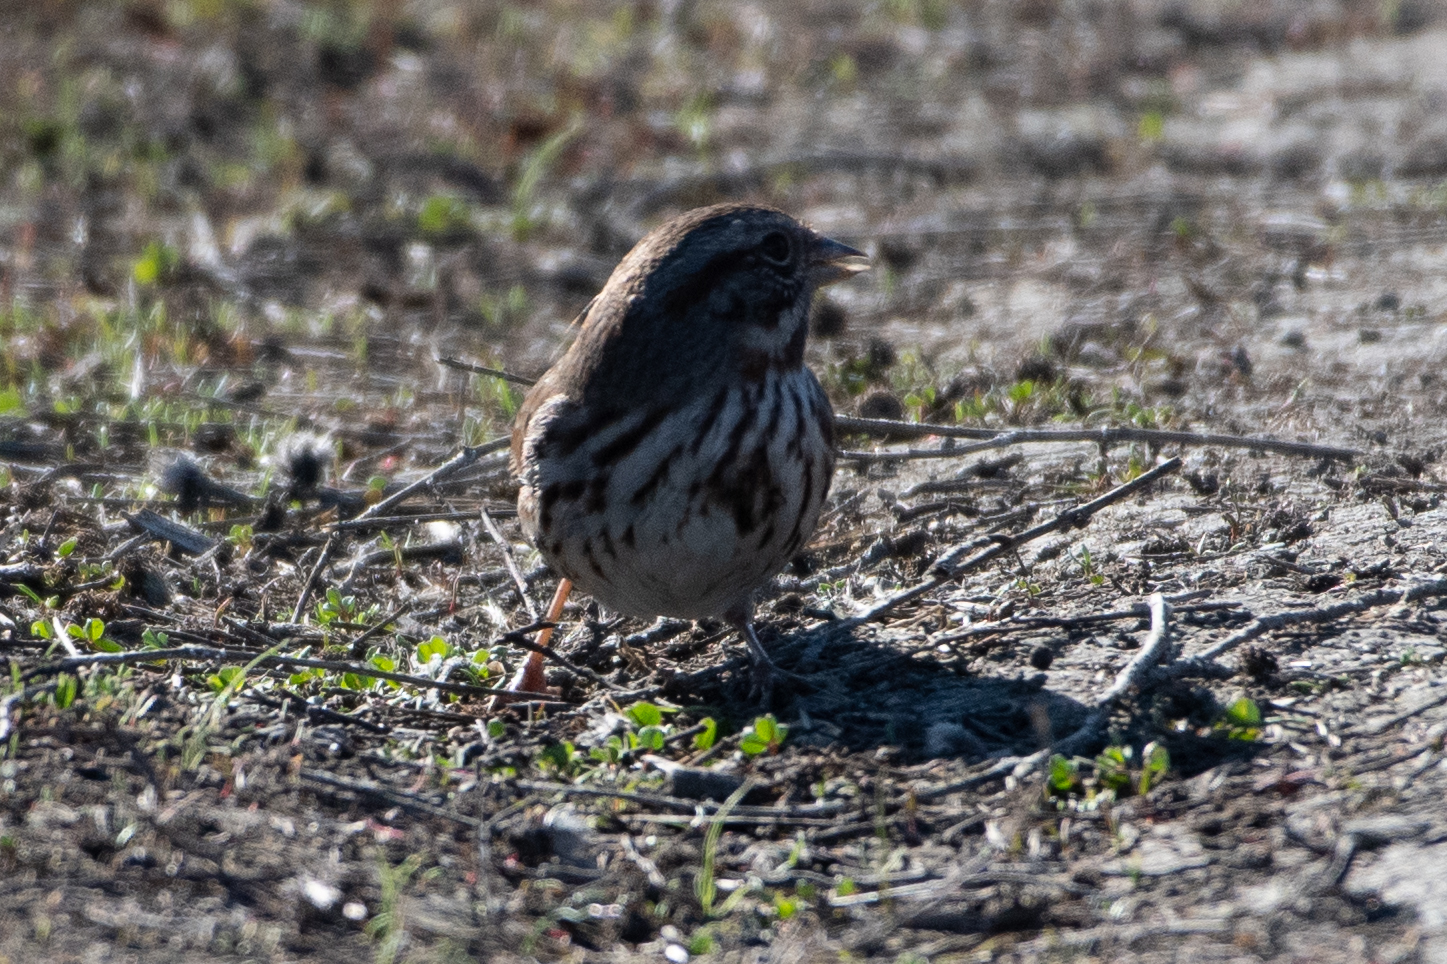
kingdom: Animalia
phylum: Chordata
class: Aves
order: Passeriformes
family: Passerellidae
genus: Melospiza
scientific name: Melospiza melodia
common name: Song sparrow
